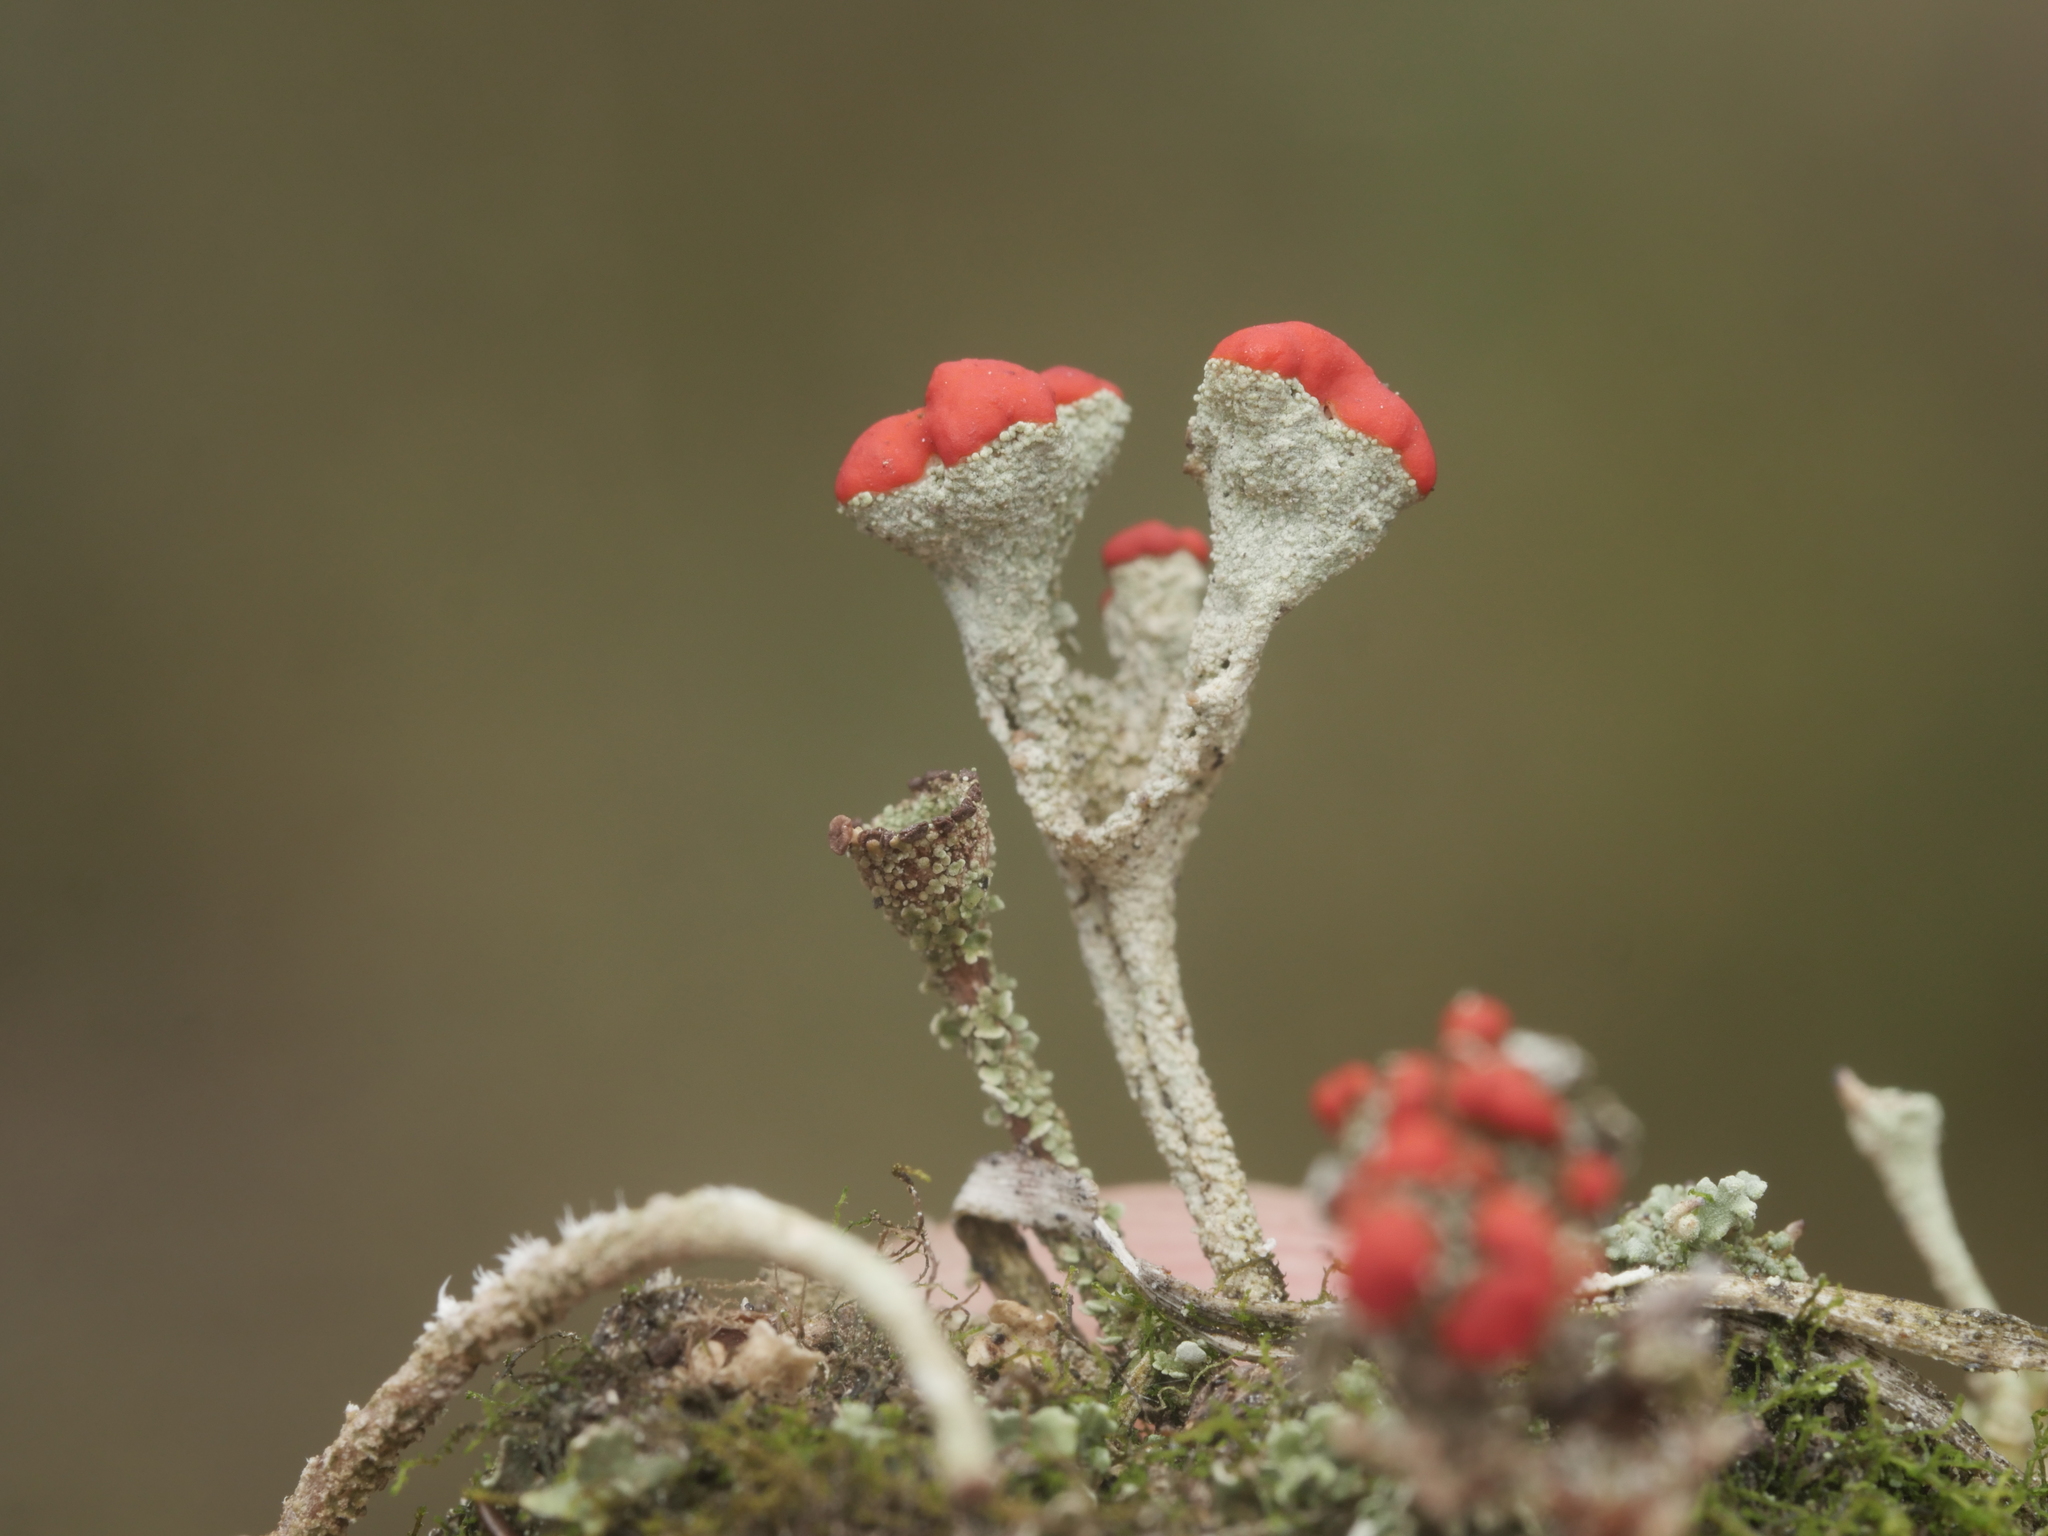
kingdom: Fungi
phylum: Ascomycota
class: Lecanoromycetes
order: Lecanorales
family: Cladoniaceae
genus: Cladonia
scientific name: Cladonia macilenta
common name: Lipstick powderhorn
